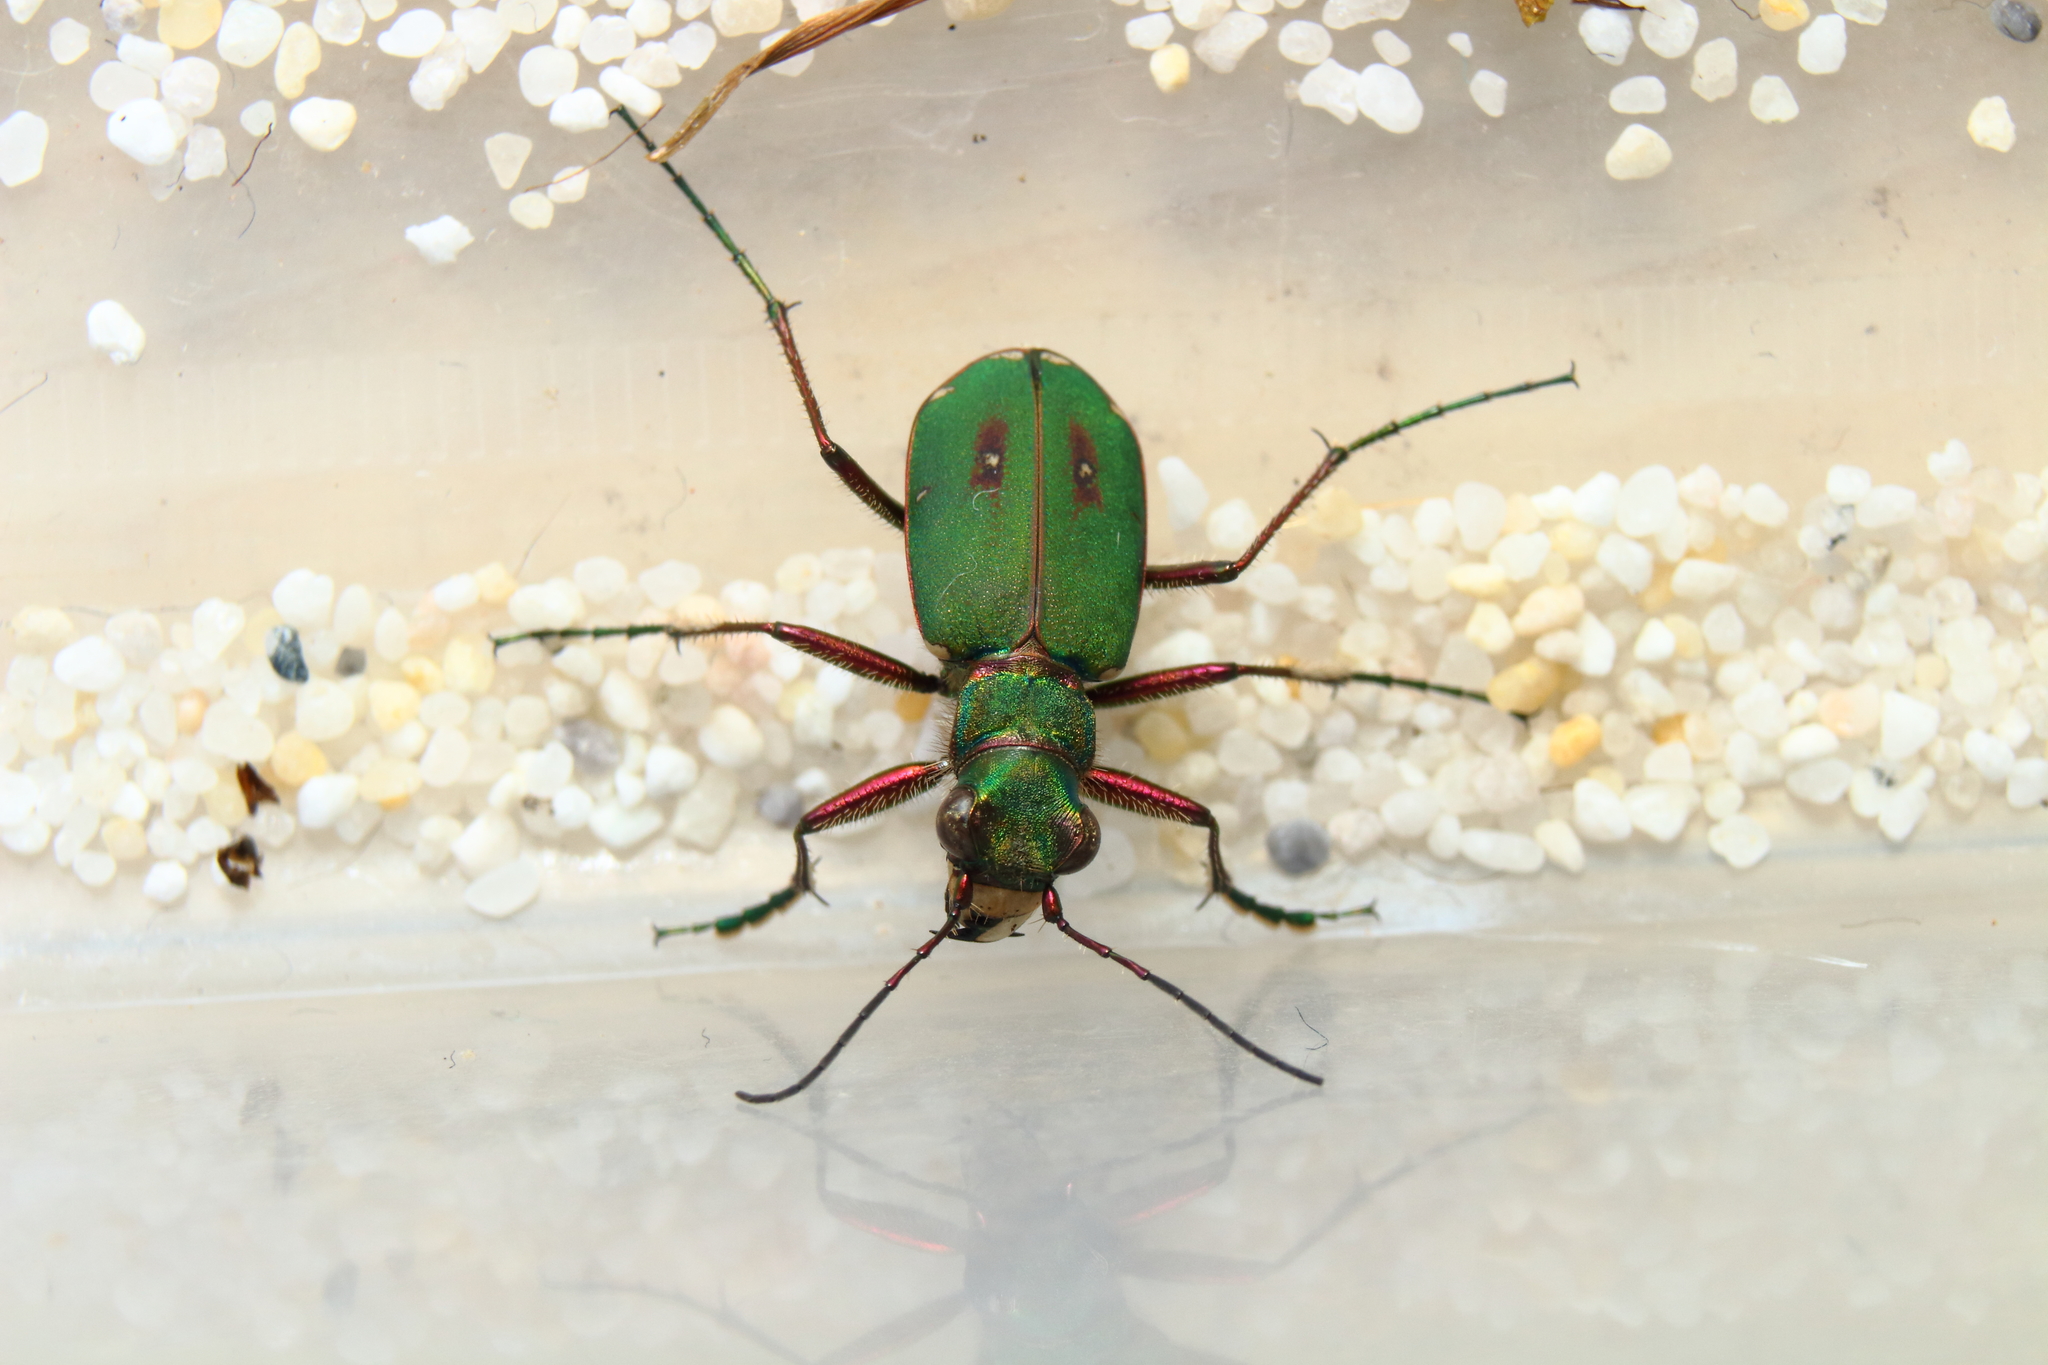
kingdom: Animalia
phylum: Arthropoda
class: Insecta
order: Coleoptera
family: Carabidae
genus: Cicindela
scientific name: Cicindela campestris
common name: Common tiger beetle
